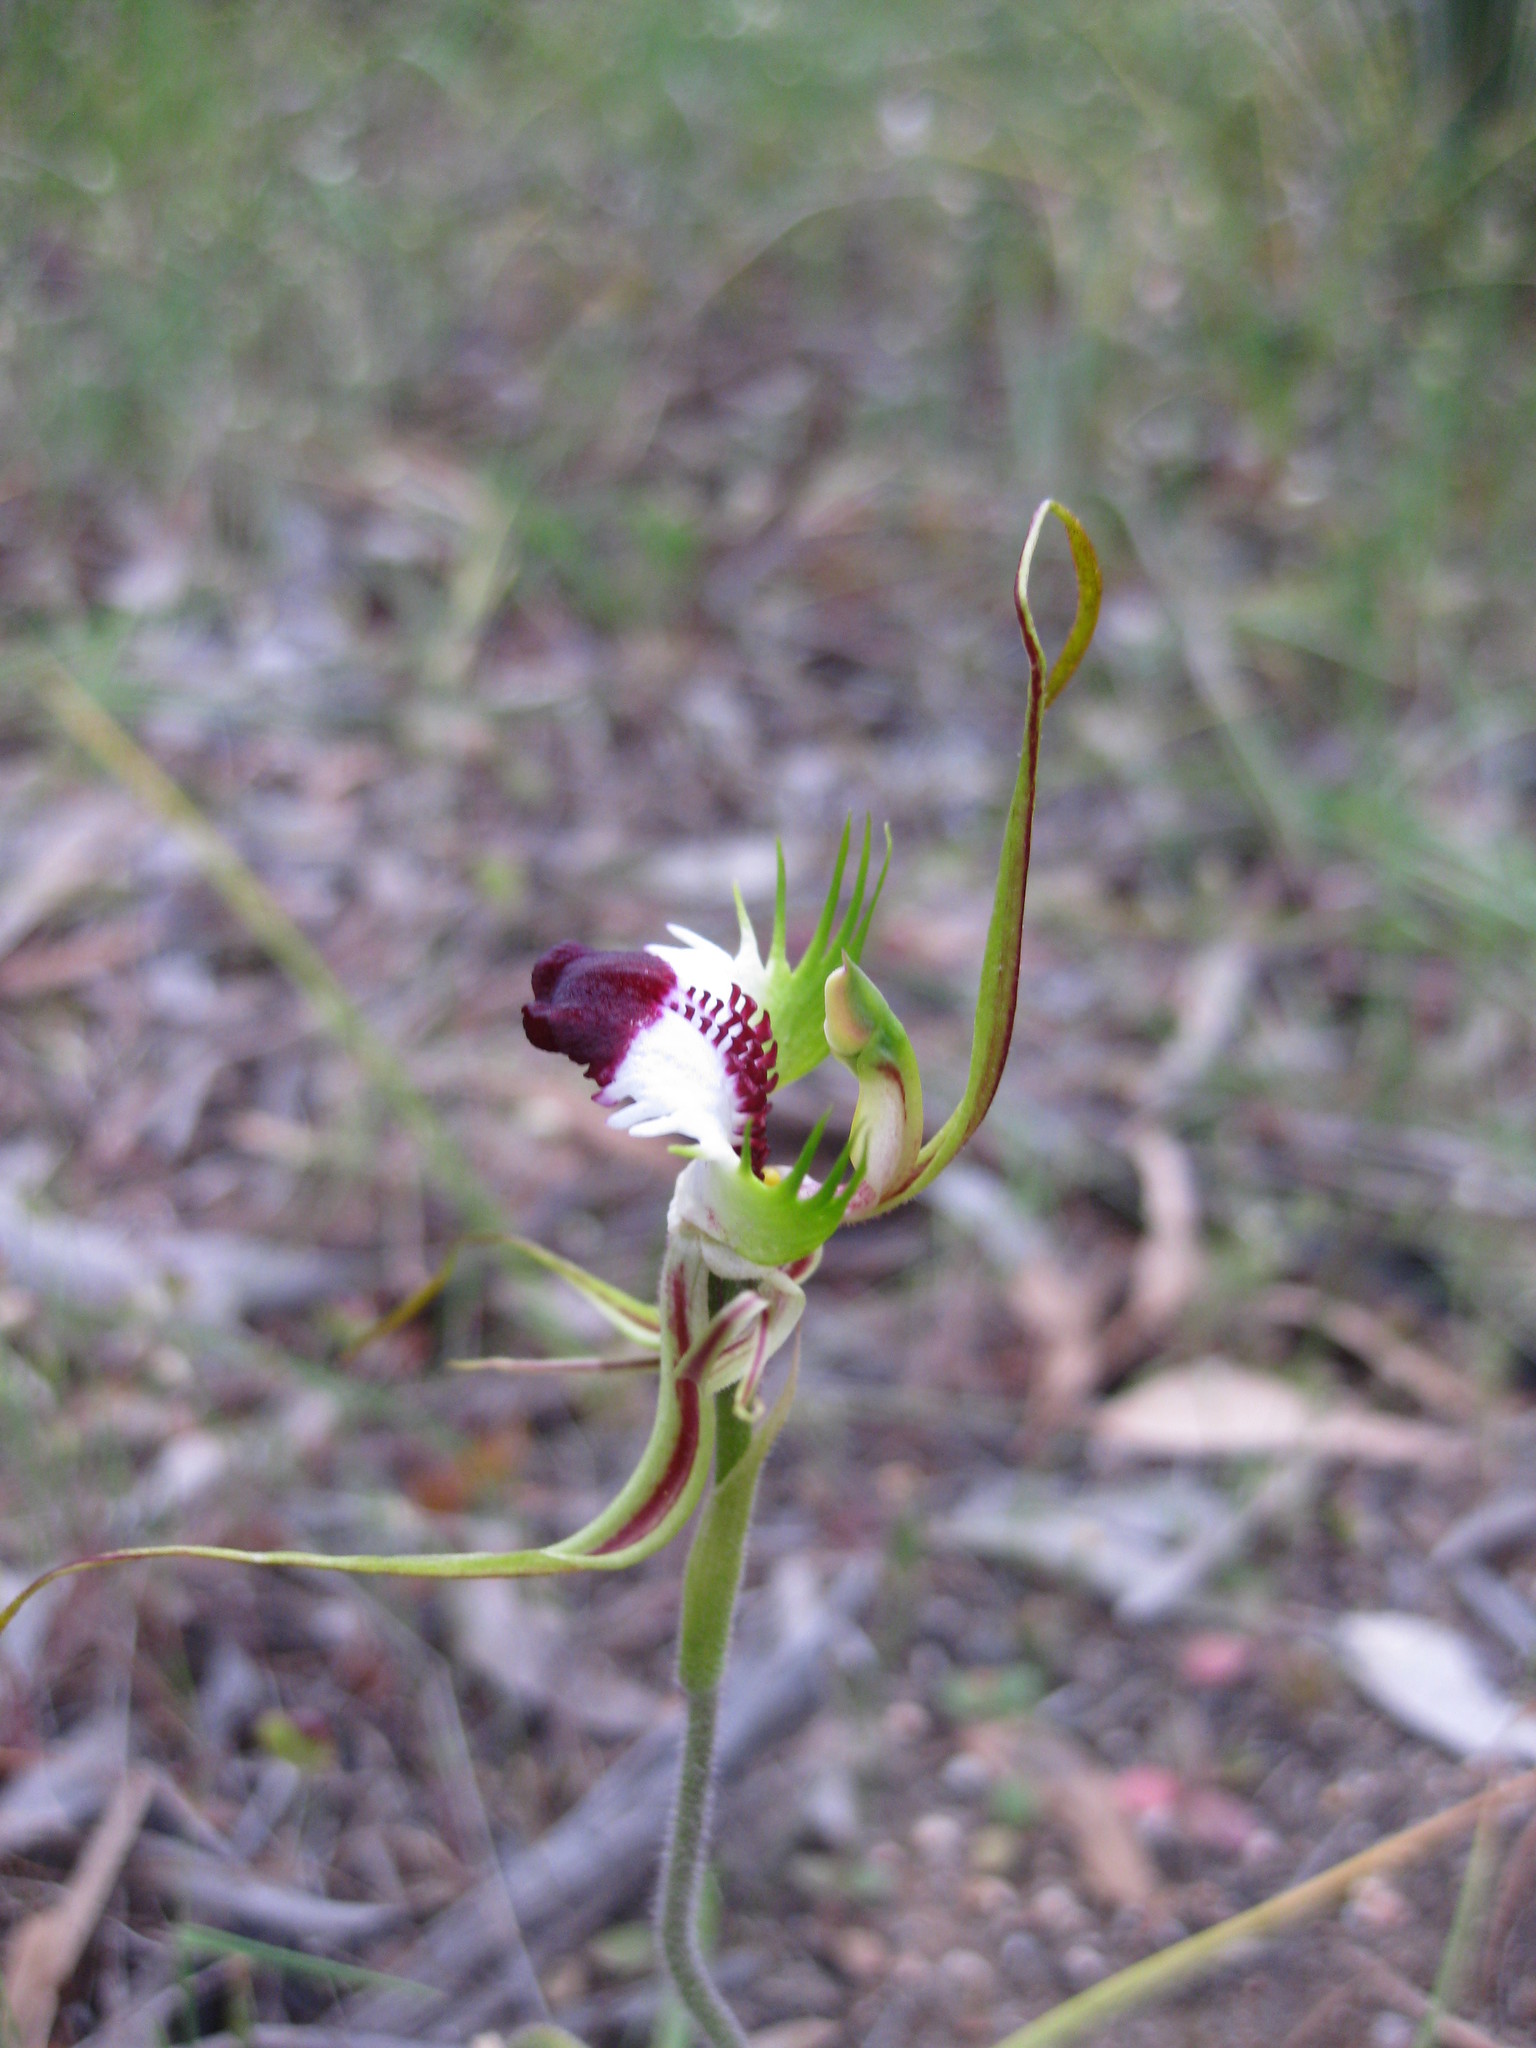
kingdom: Plantae
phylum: Tracheophyta
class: Liliopsida
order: Asparagales
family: Orchidaceae
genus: Caladenia
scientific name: Caladenia tentaculata
